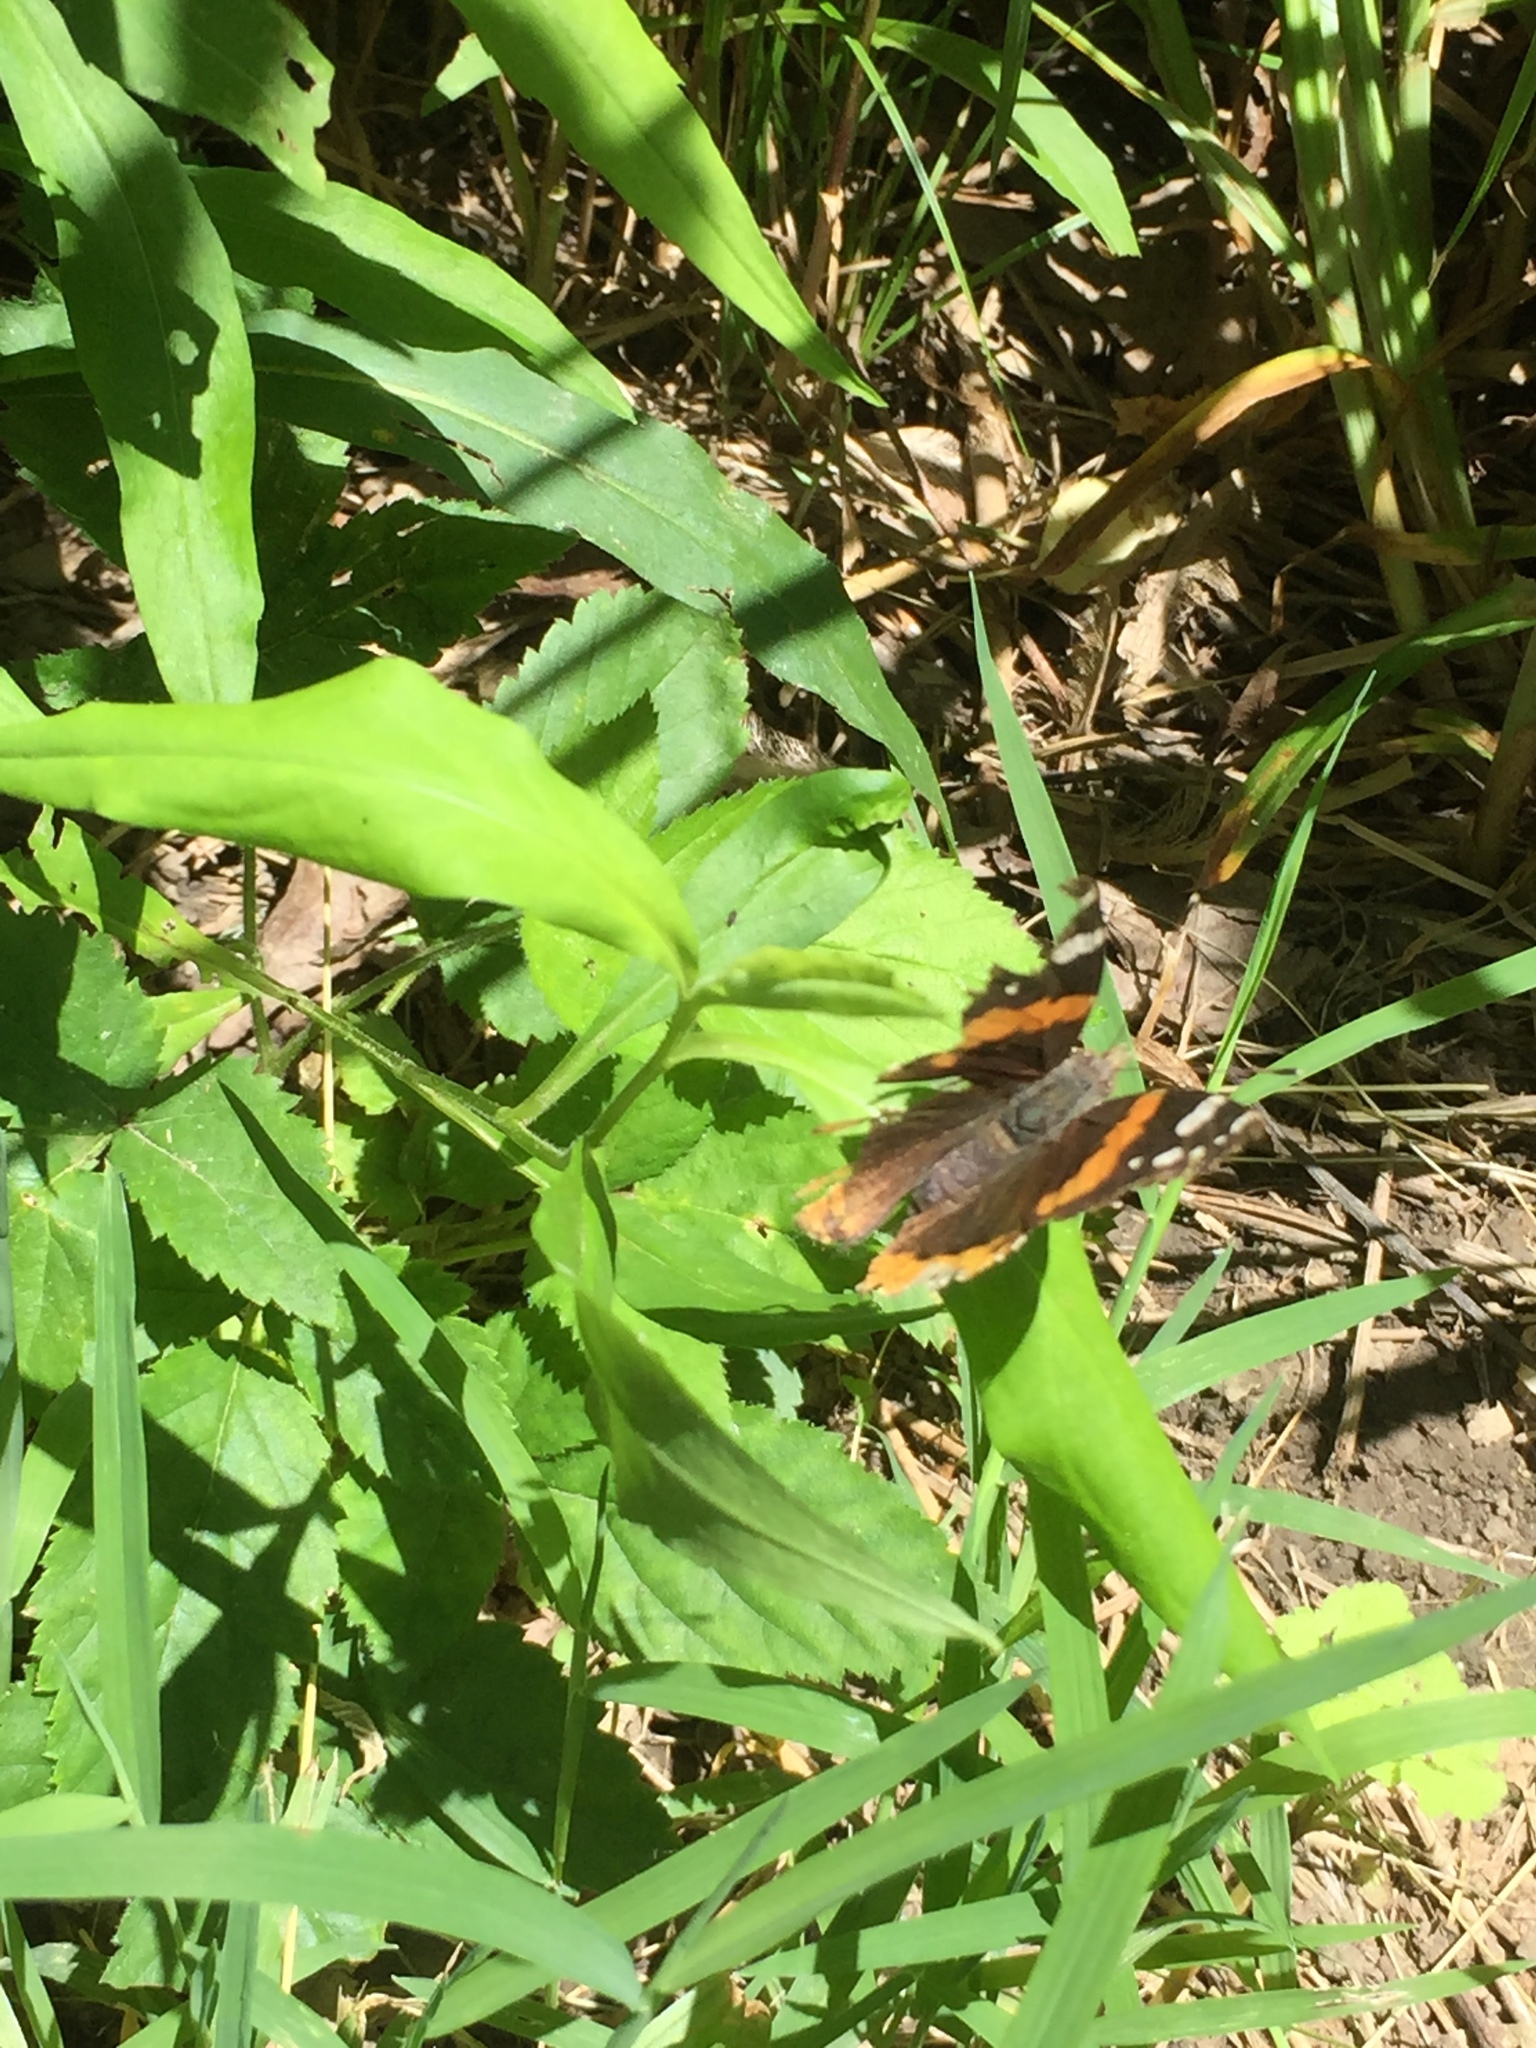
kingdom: Animalia
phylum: Arthropoda
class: Insecta
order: Lepidoptera
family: Nymphalidae
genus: Vanessa
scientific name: Vanessa atalanta
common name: Red admiral
